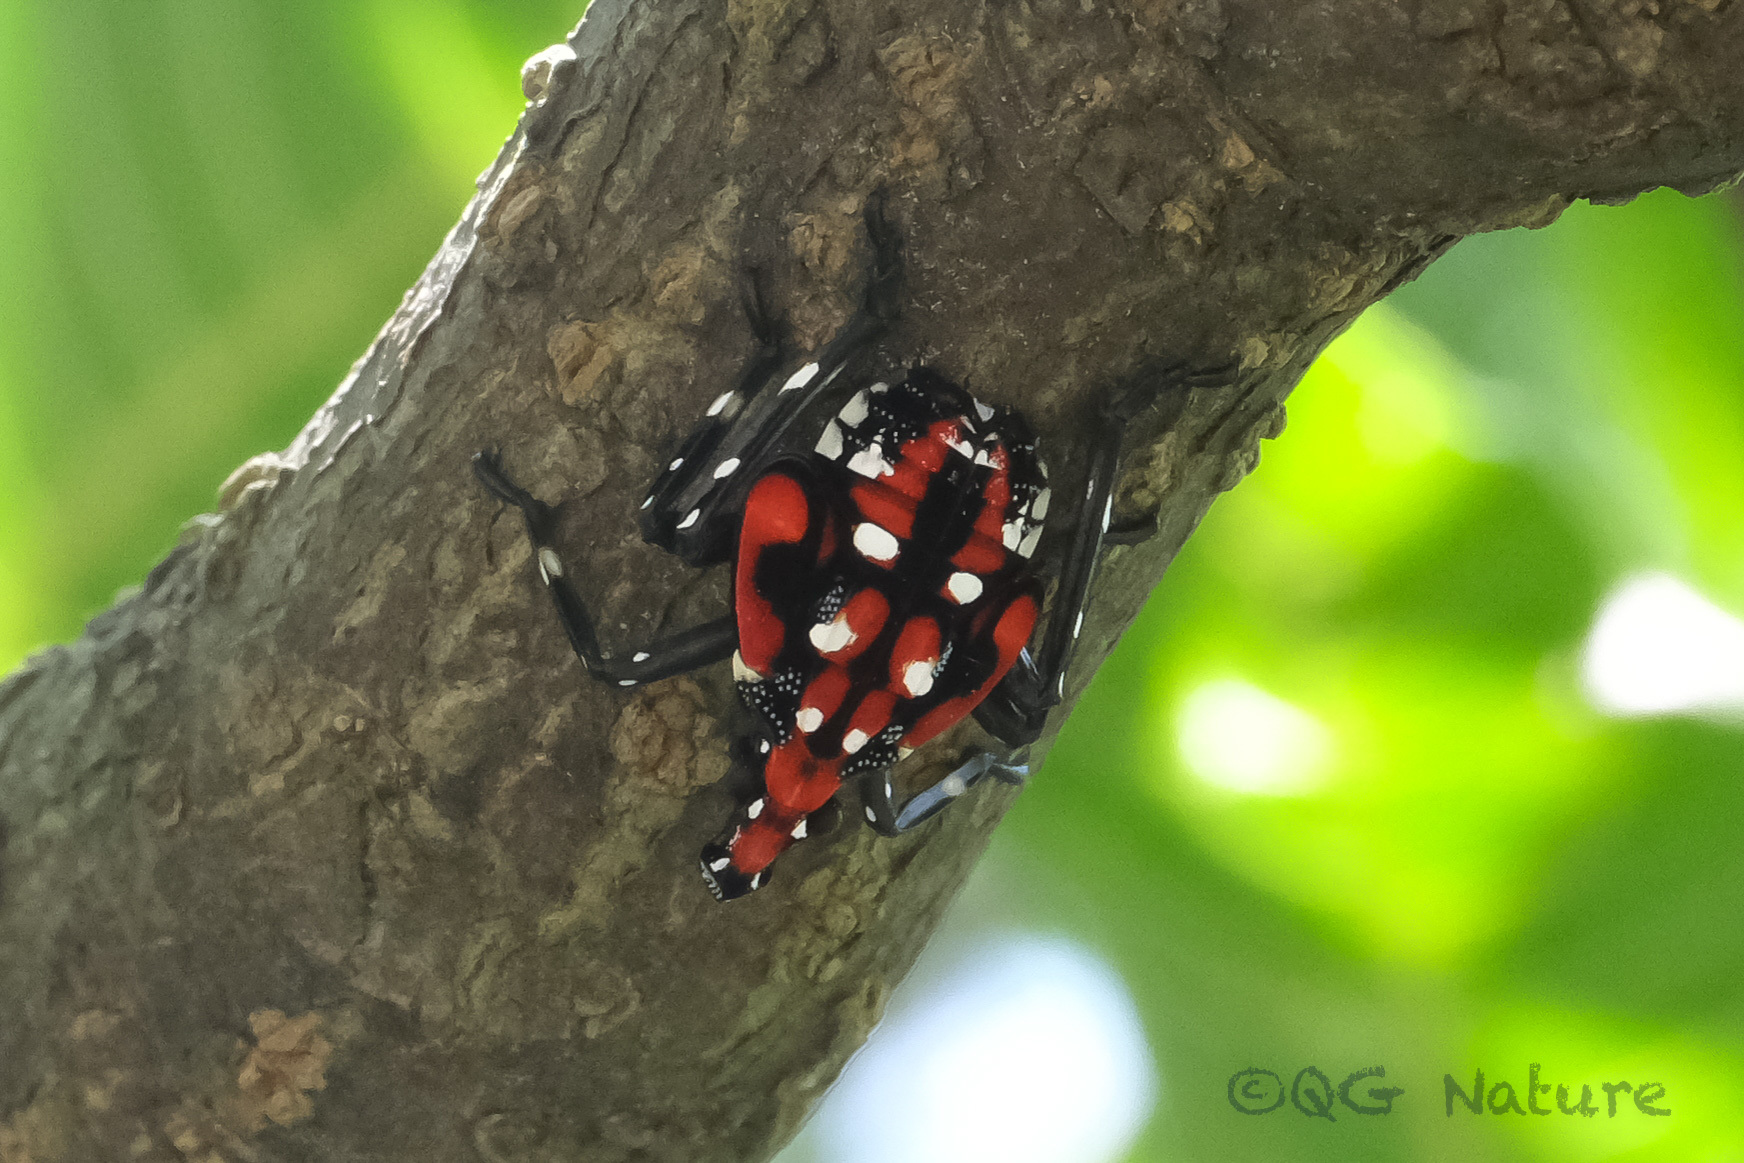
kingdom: Animalia
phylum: Arthropoda
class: Insecta
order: Hemiptera
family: Fulgoridae
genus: Lycorma
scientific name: Lycorma delicatula
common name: Spotted lanternfly
